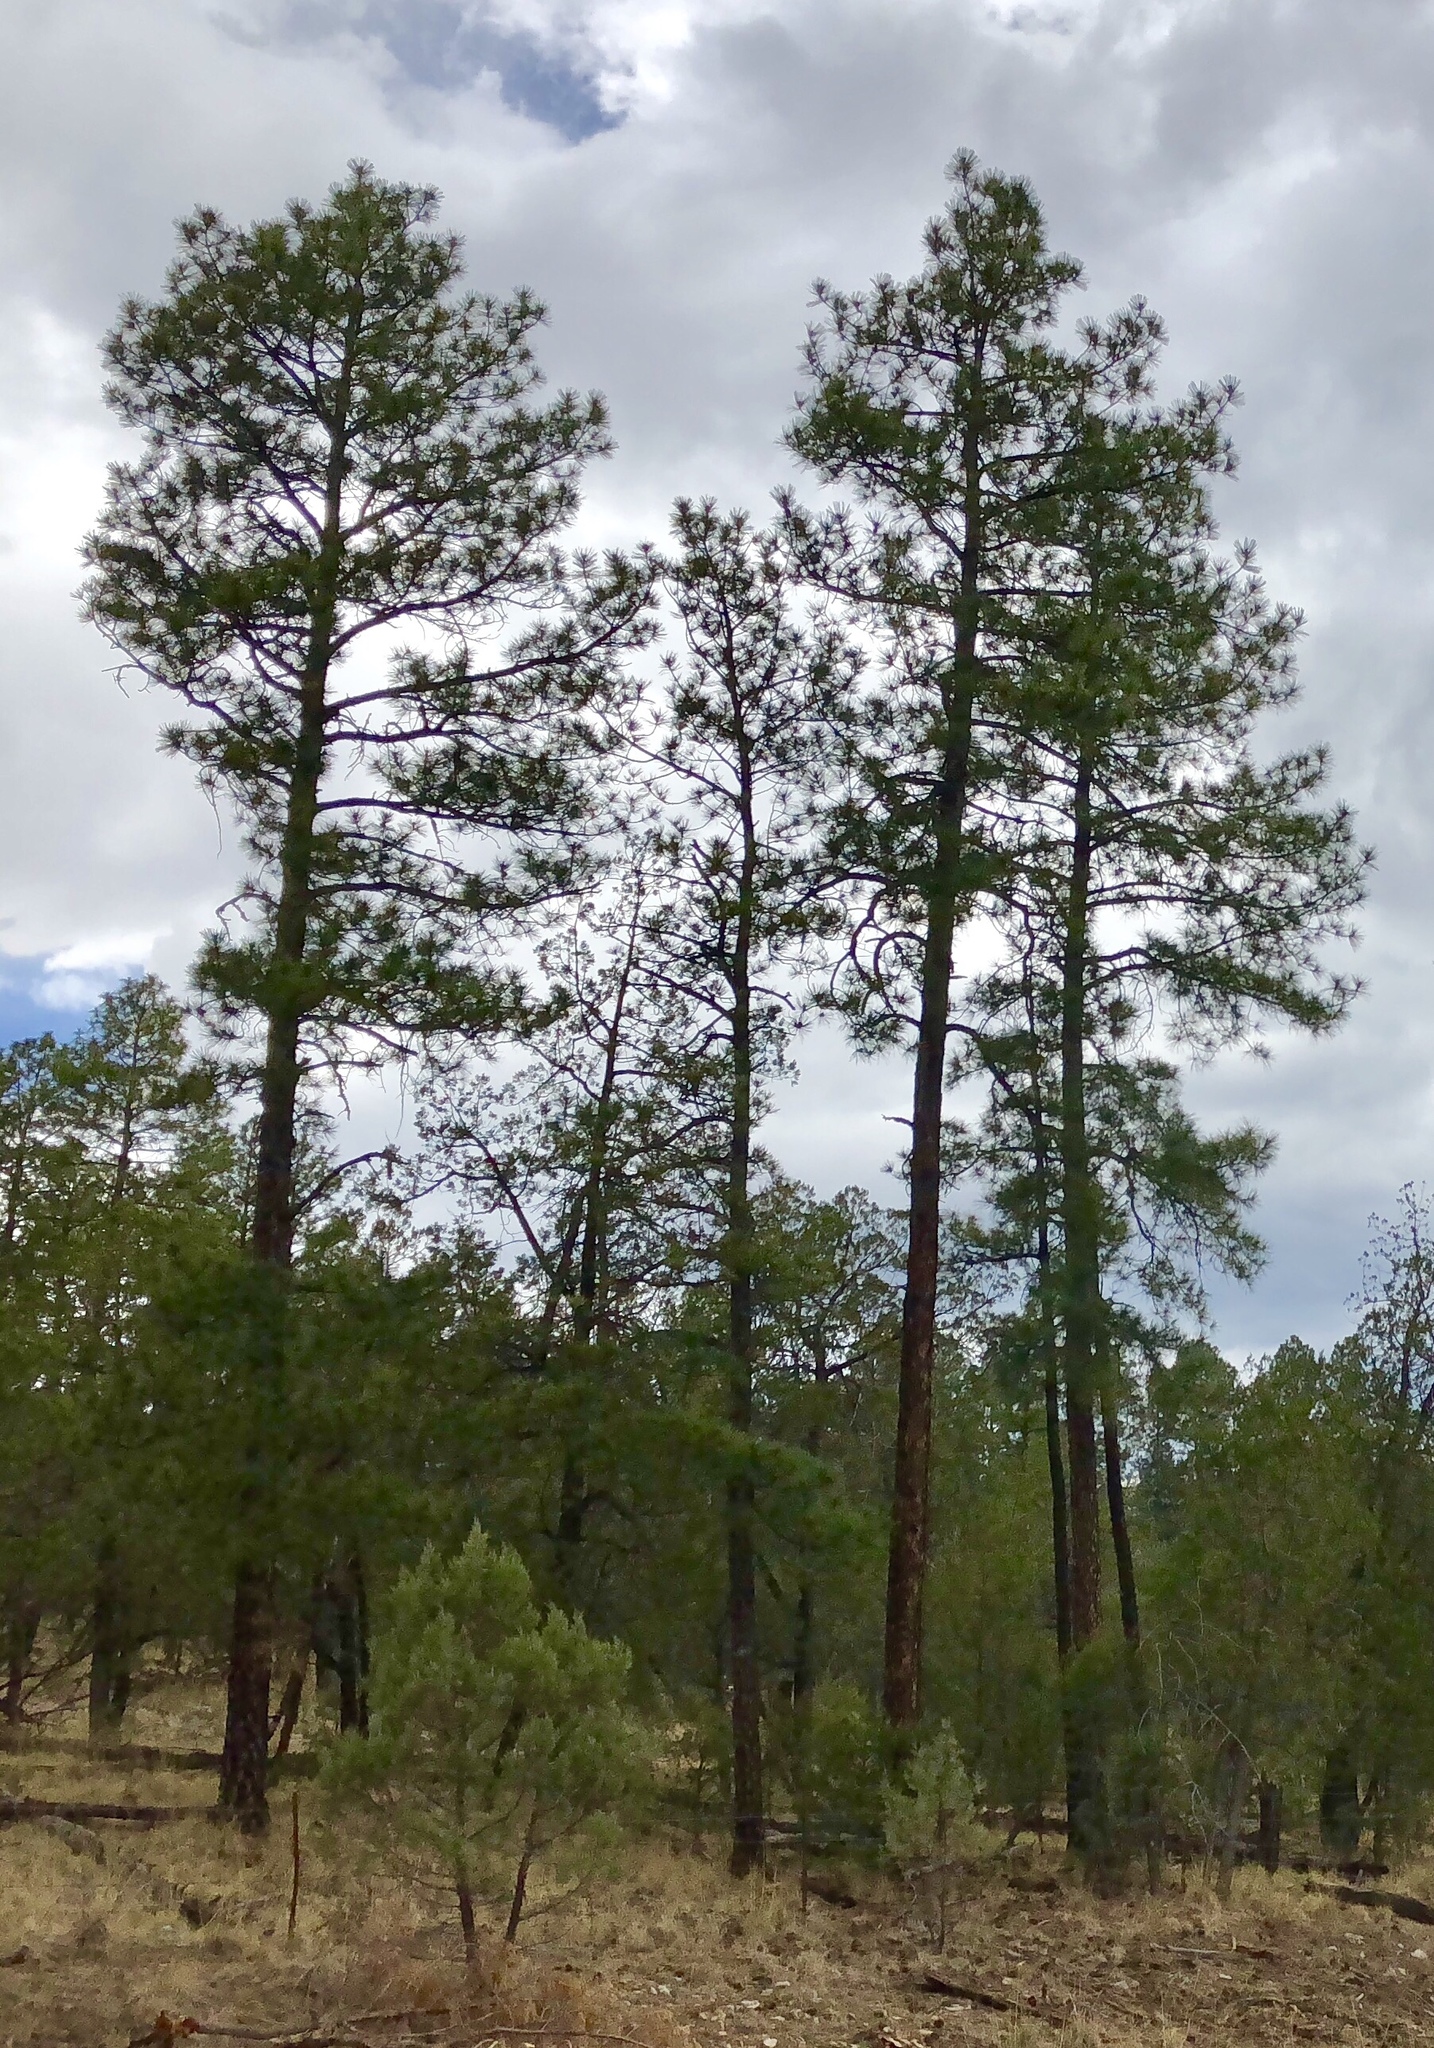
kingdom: Plantae
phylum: Tracheophyta
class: Pinopsida
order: Pinales
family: Pinaceae
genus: Pinus
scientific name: Pinus ponderosa
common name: Western yellow-pine
